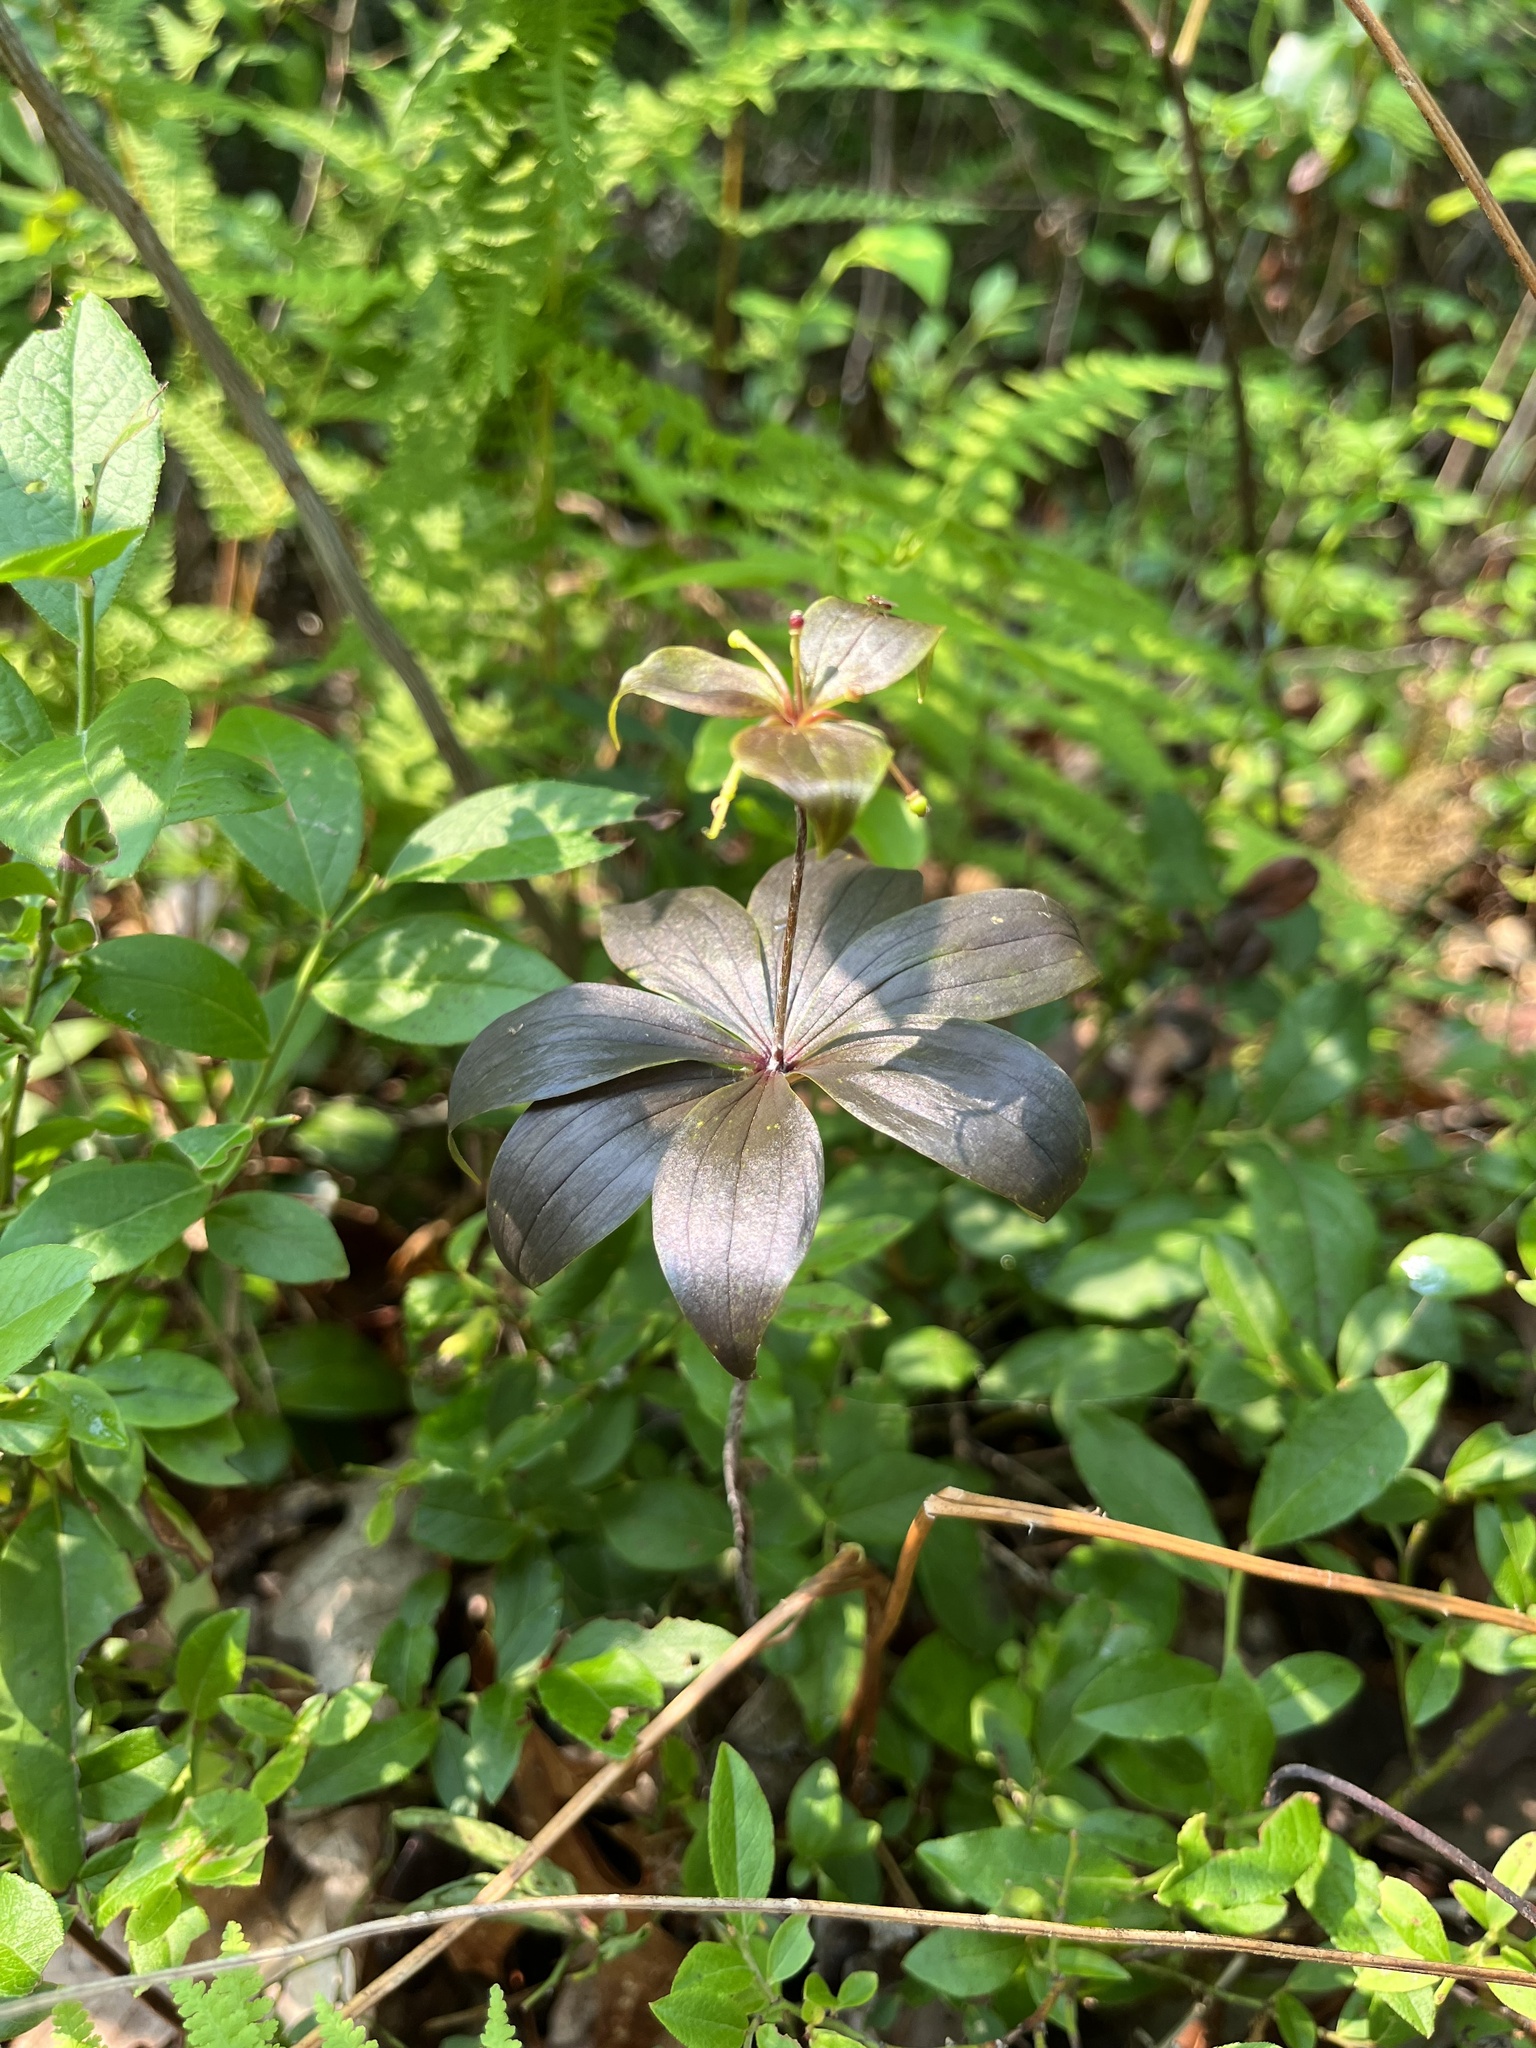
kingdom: Plantae
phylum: Tracheophyta
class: Liliopsida
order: Liliales
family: Liliaceae
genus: Medeola
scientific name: Medeola virginiana
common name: Indian cucumber-root
